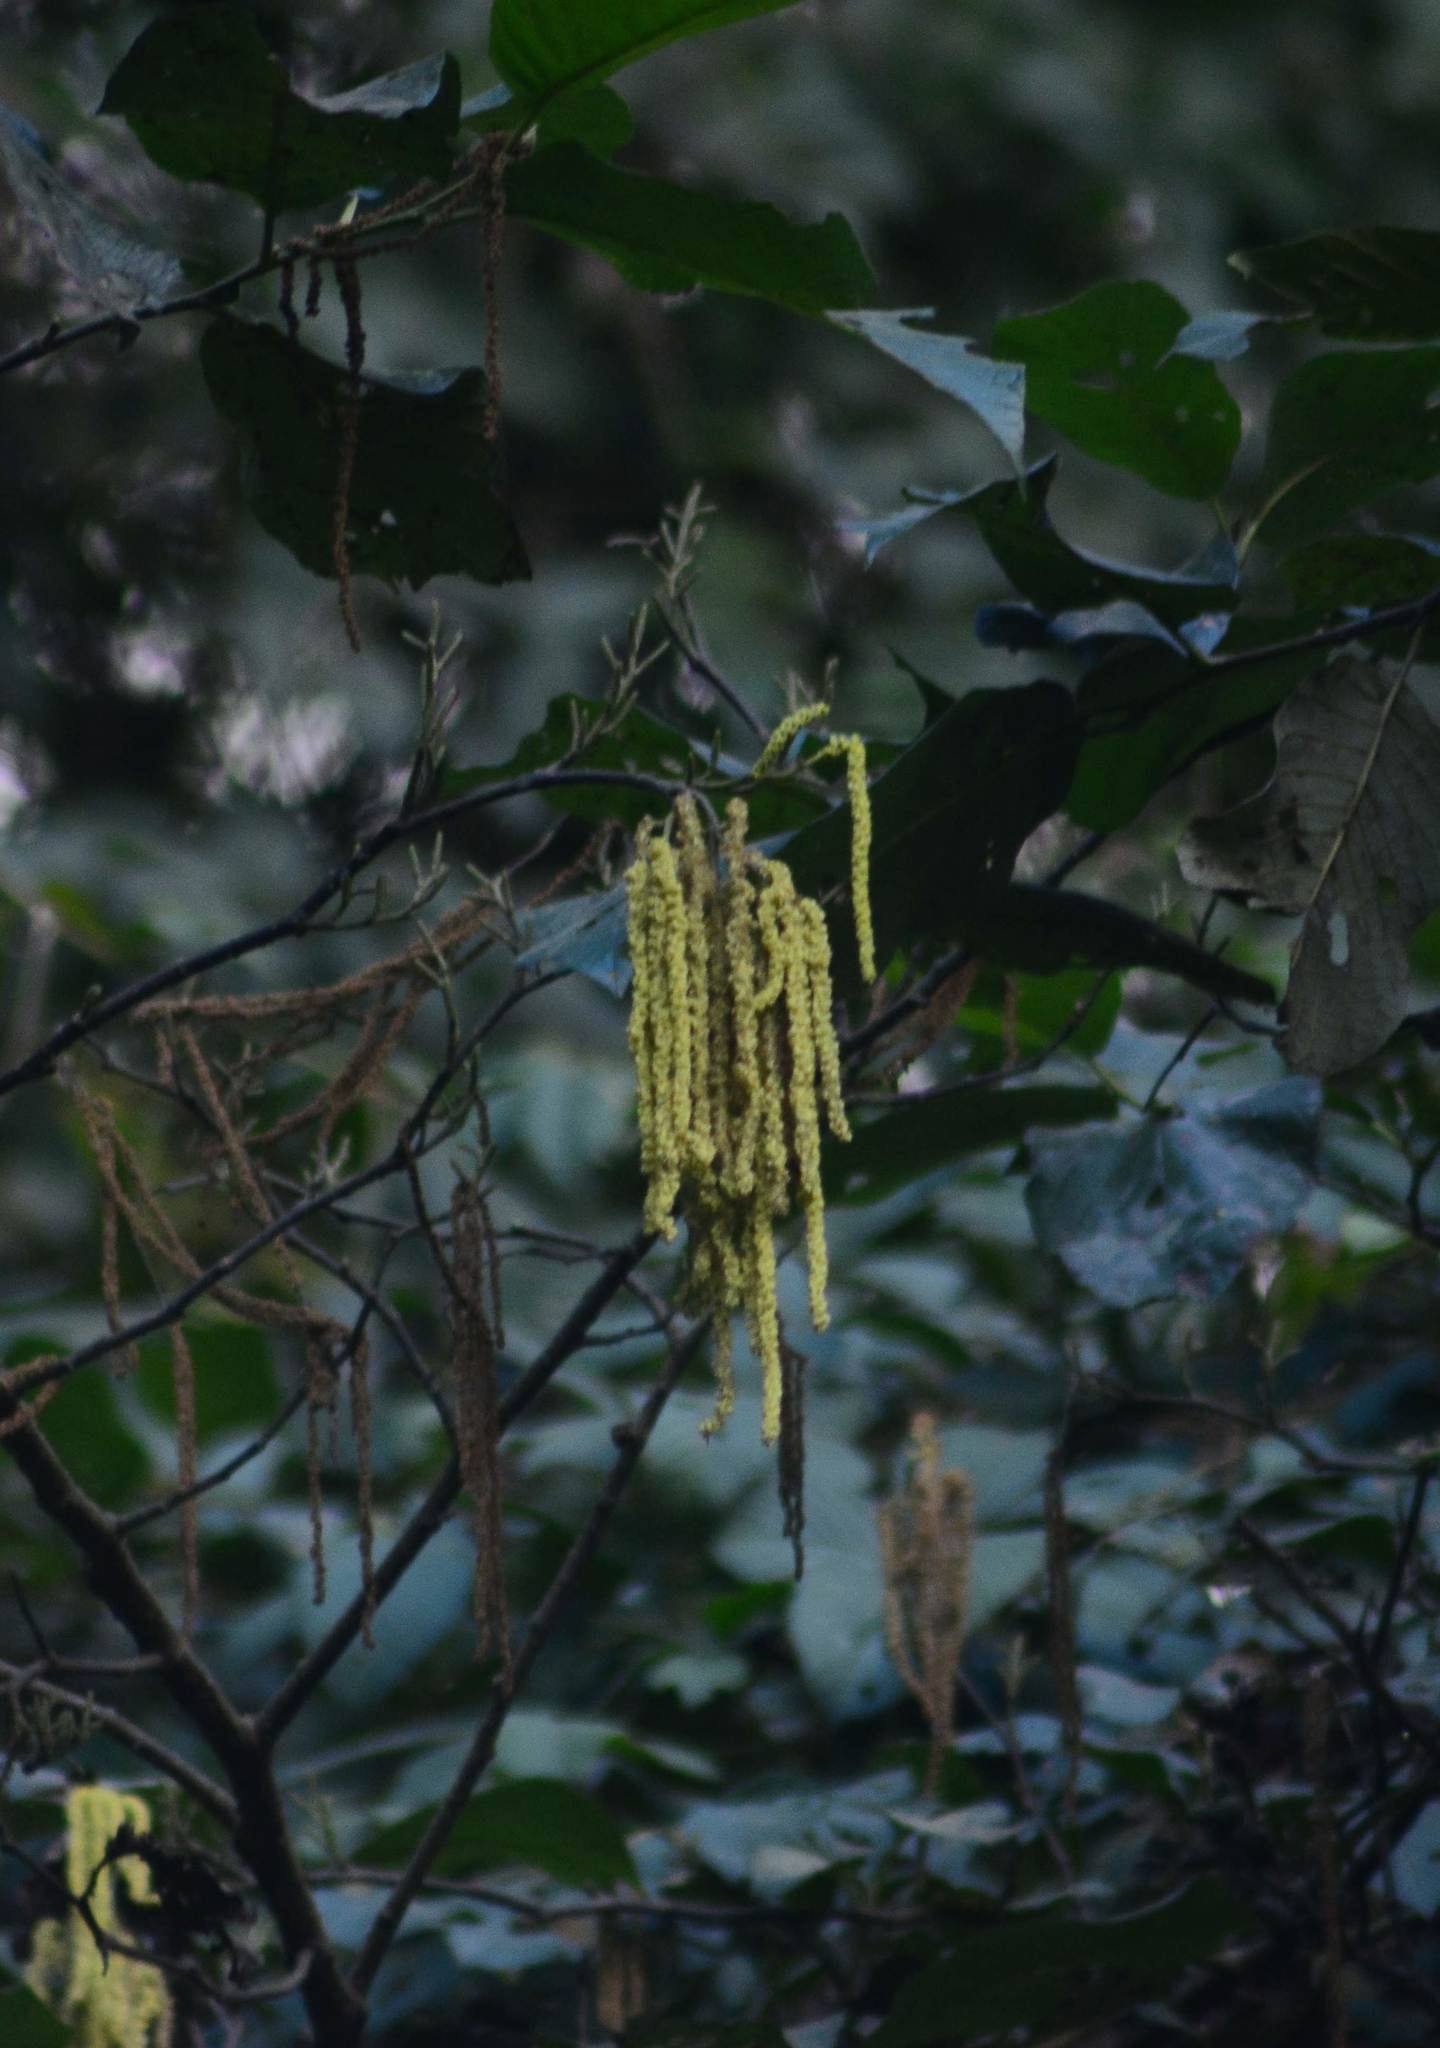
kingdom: Plantae
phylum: Tracheophyta
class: Magnoliopsida
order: Fagales
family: Betulaceae
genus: Alnus
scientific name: Alnus nepalensis
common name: Nepal alder
